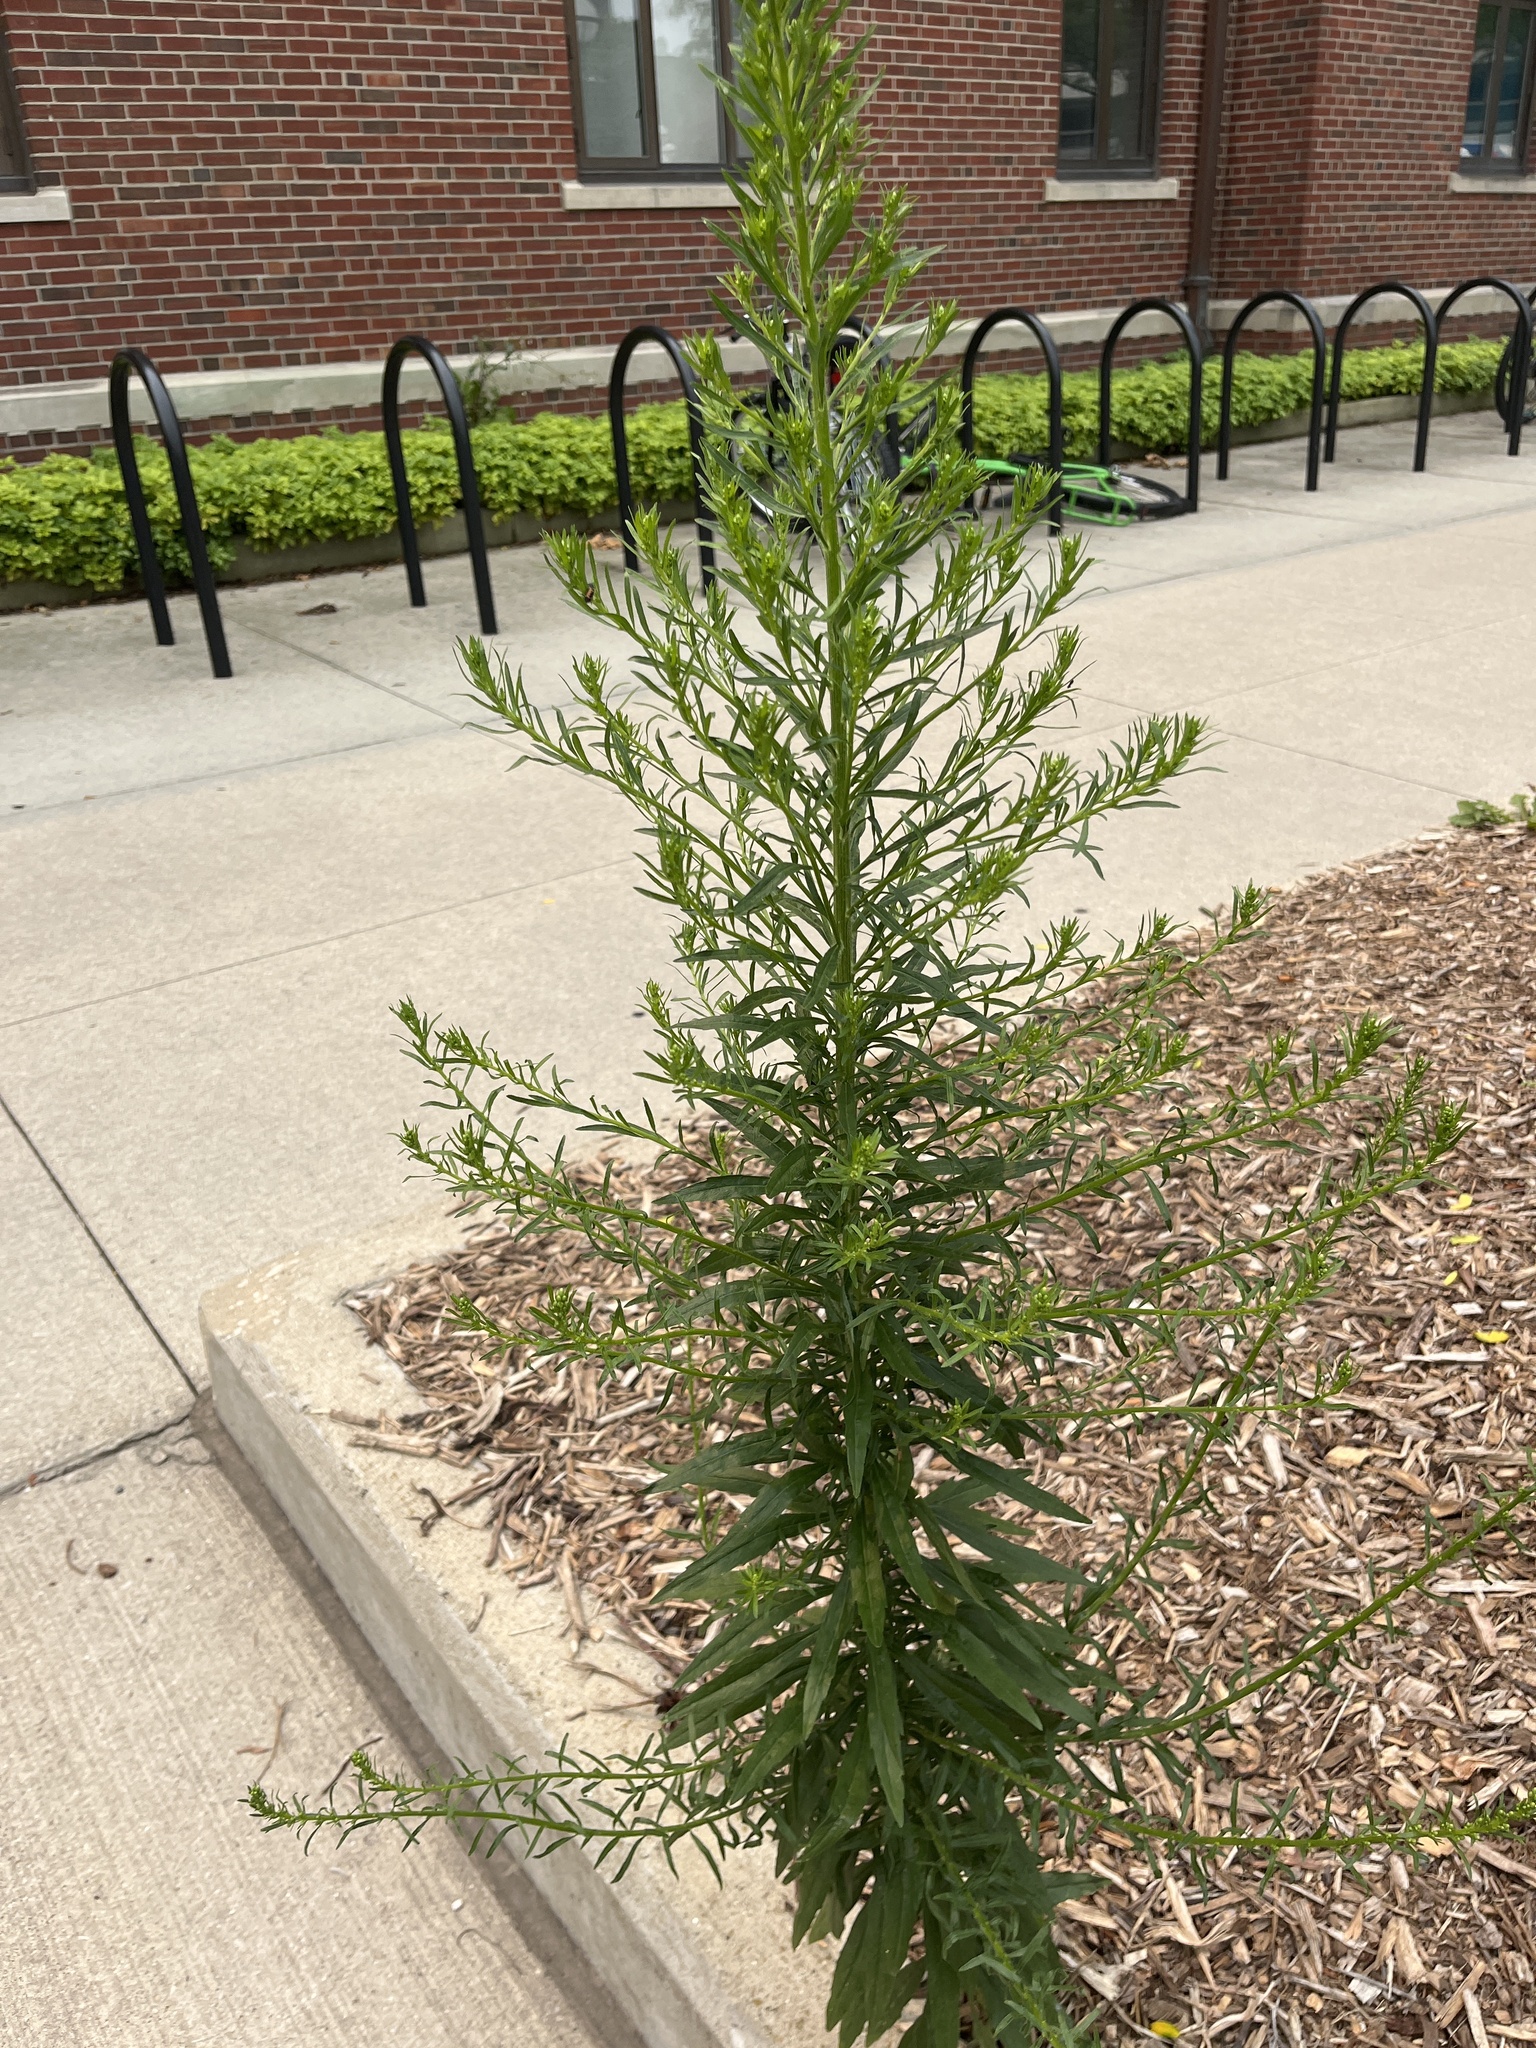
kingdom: Plantae
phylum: Tracheophyta
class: Magnoliopsida
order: Asterales
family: Asteraceae
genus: Erigeron
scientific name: Erigeron canadensis
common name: Canadian fleabane
